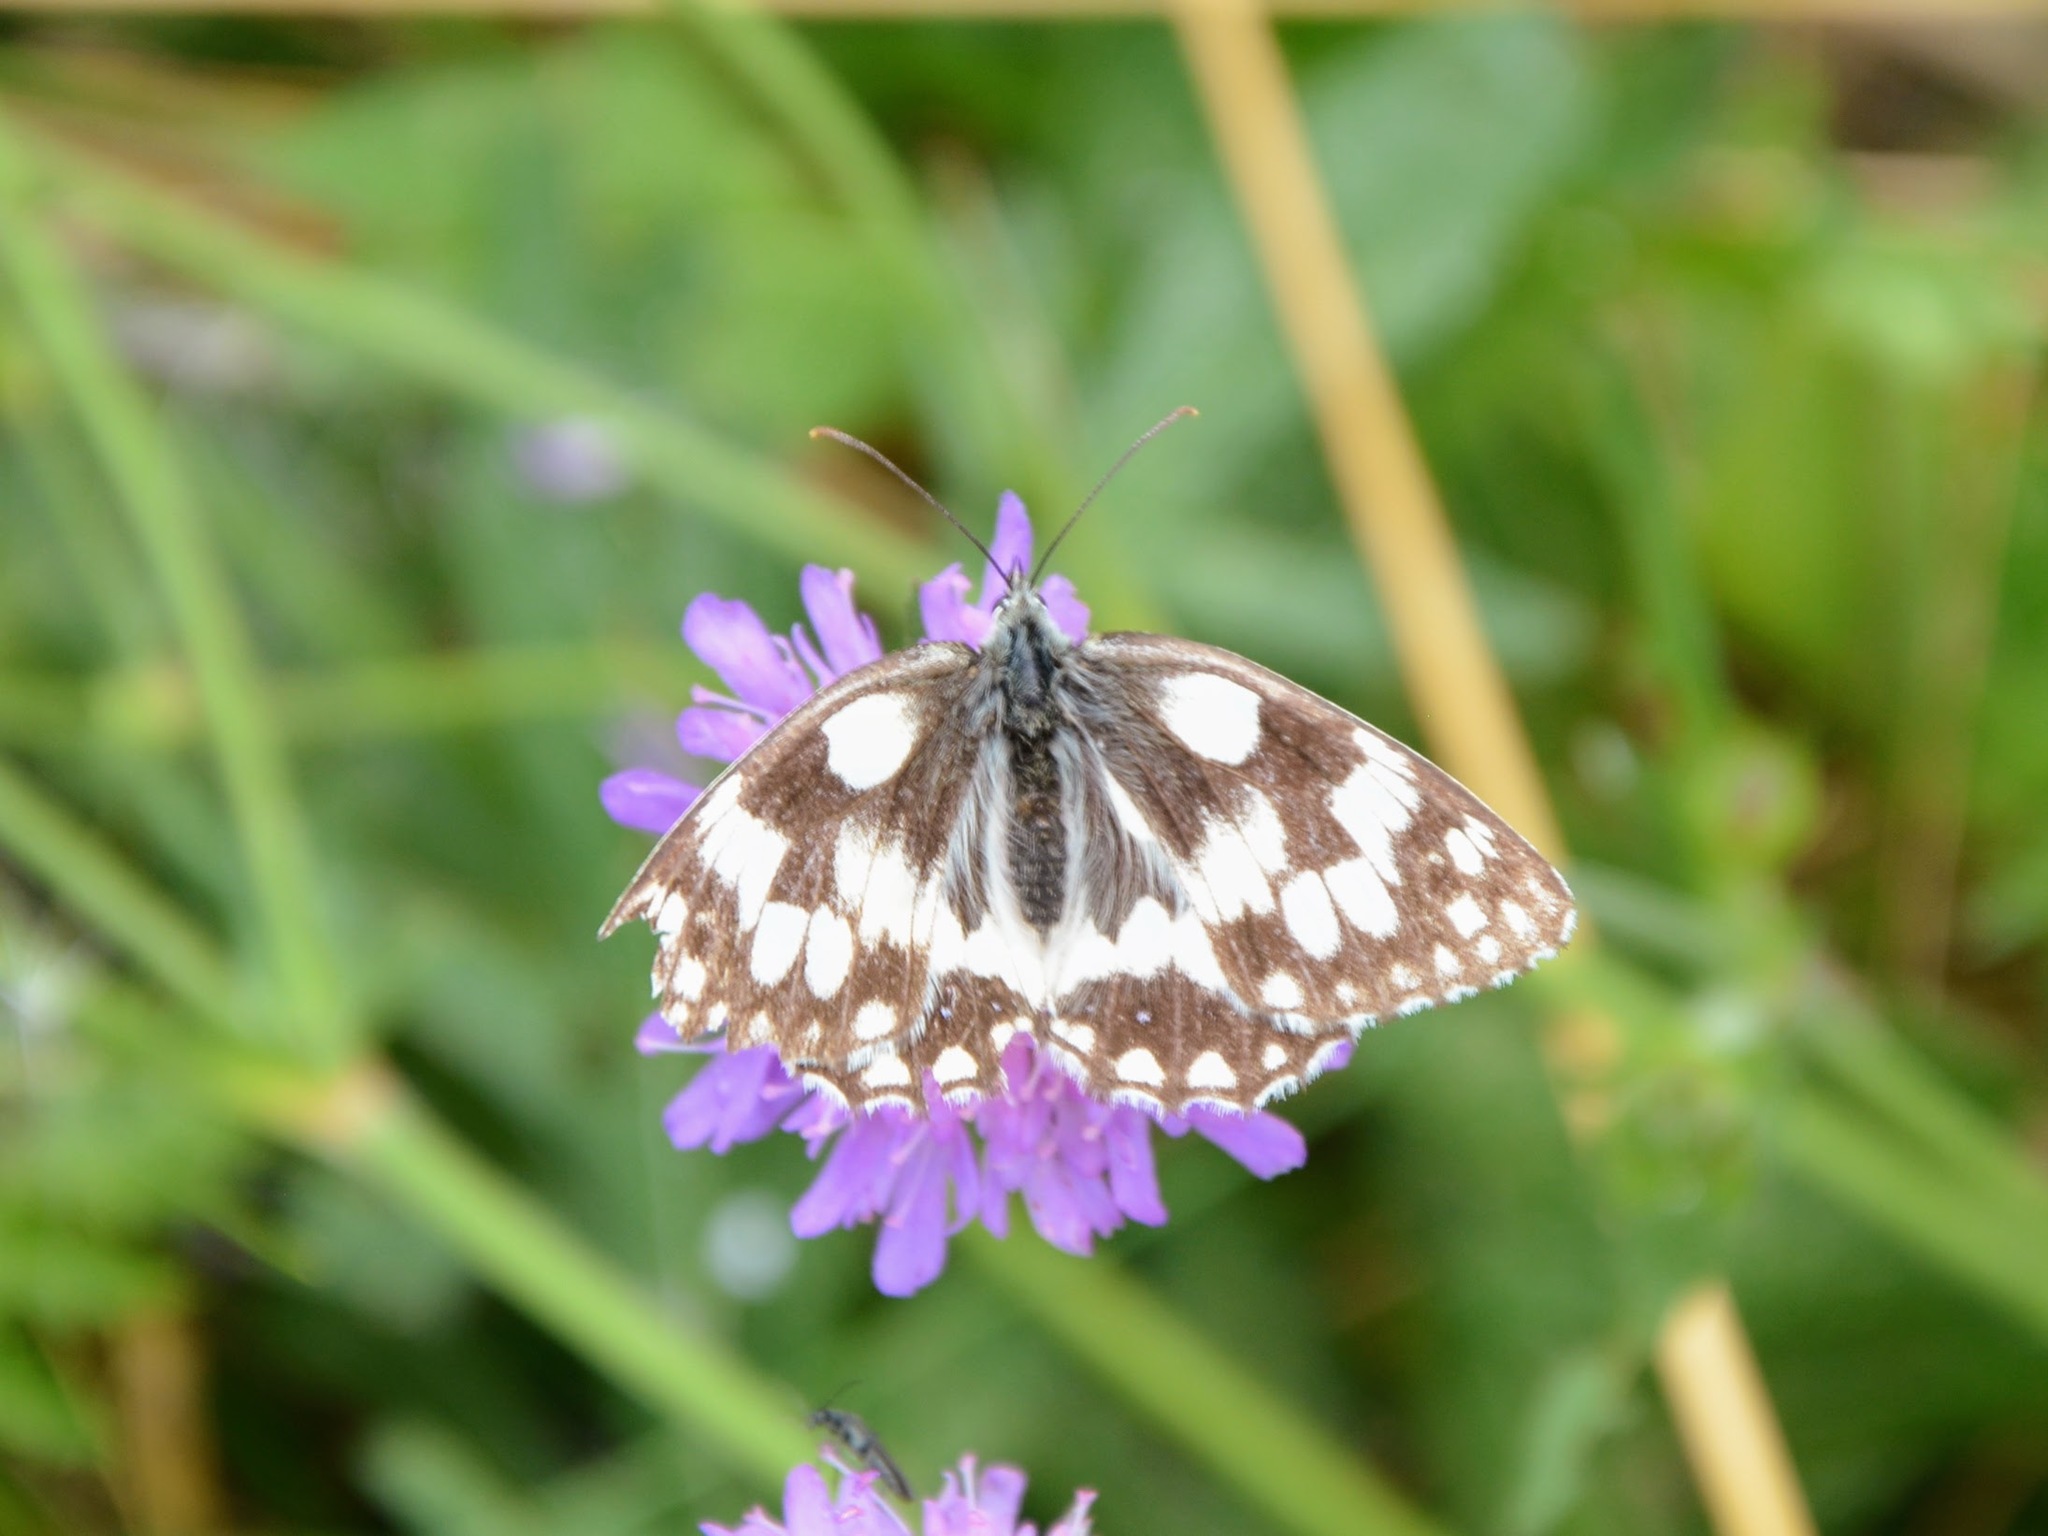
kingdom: Animalia
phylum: Arthropoda
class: Insecta
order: Lepidoptera
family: Nymphalidae
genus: Melanargia
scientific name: Melanargia galathea
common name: Marbled white
